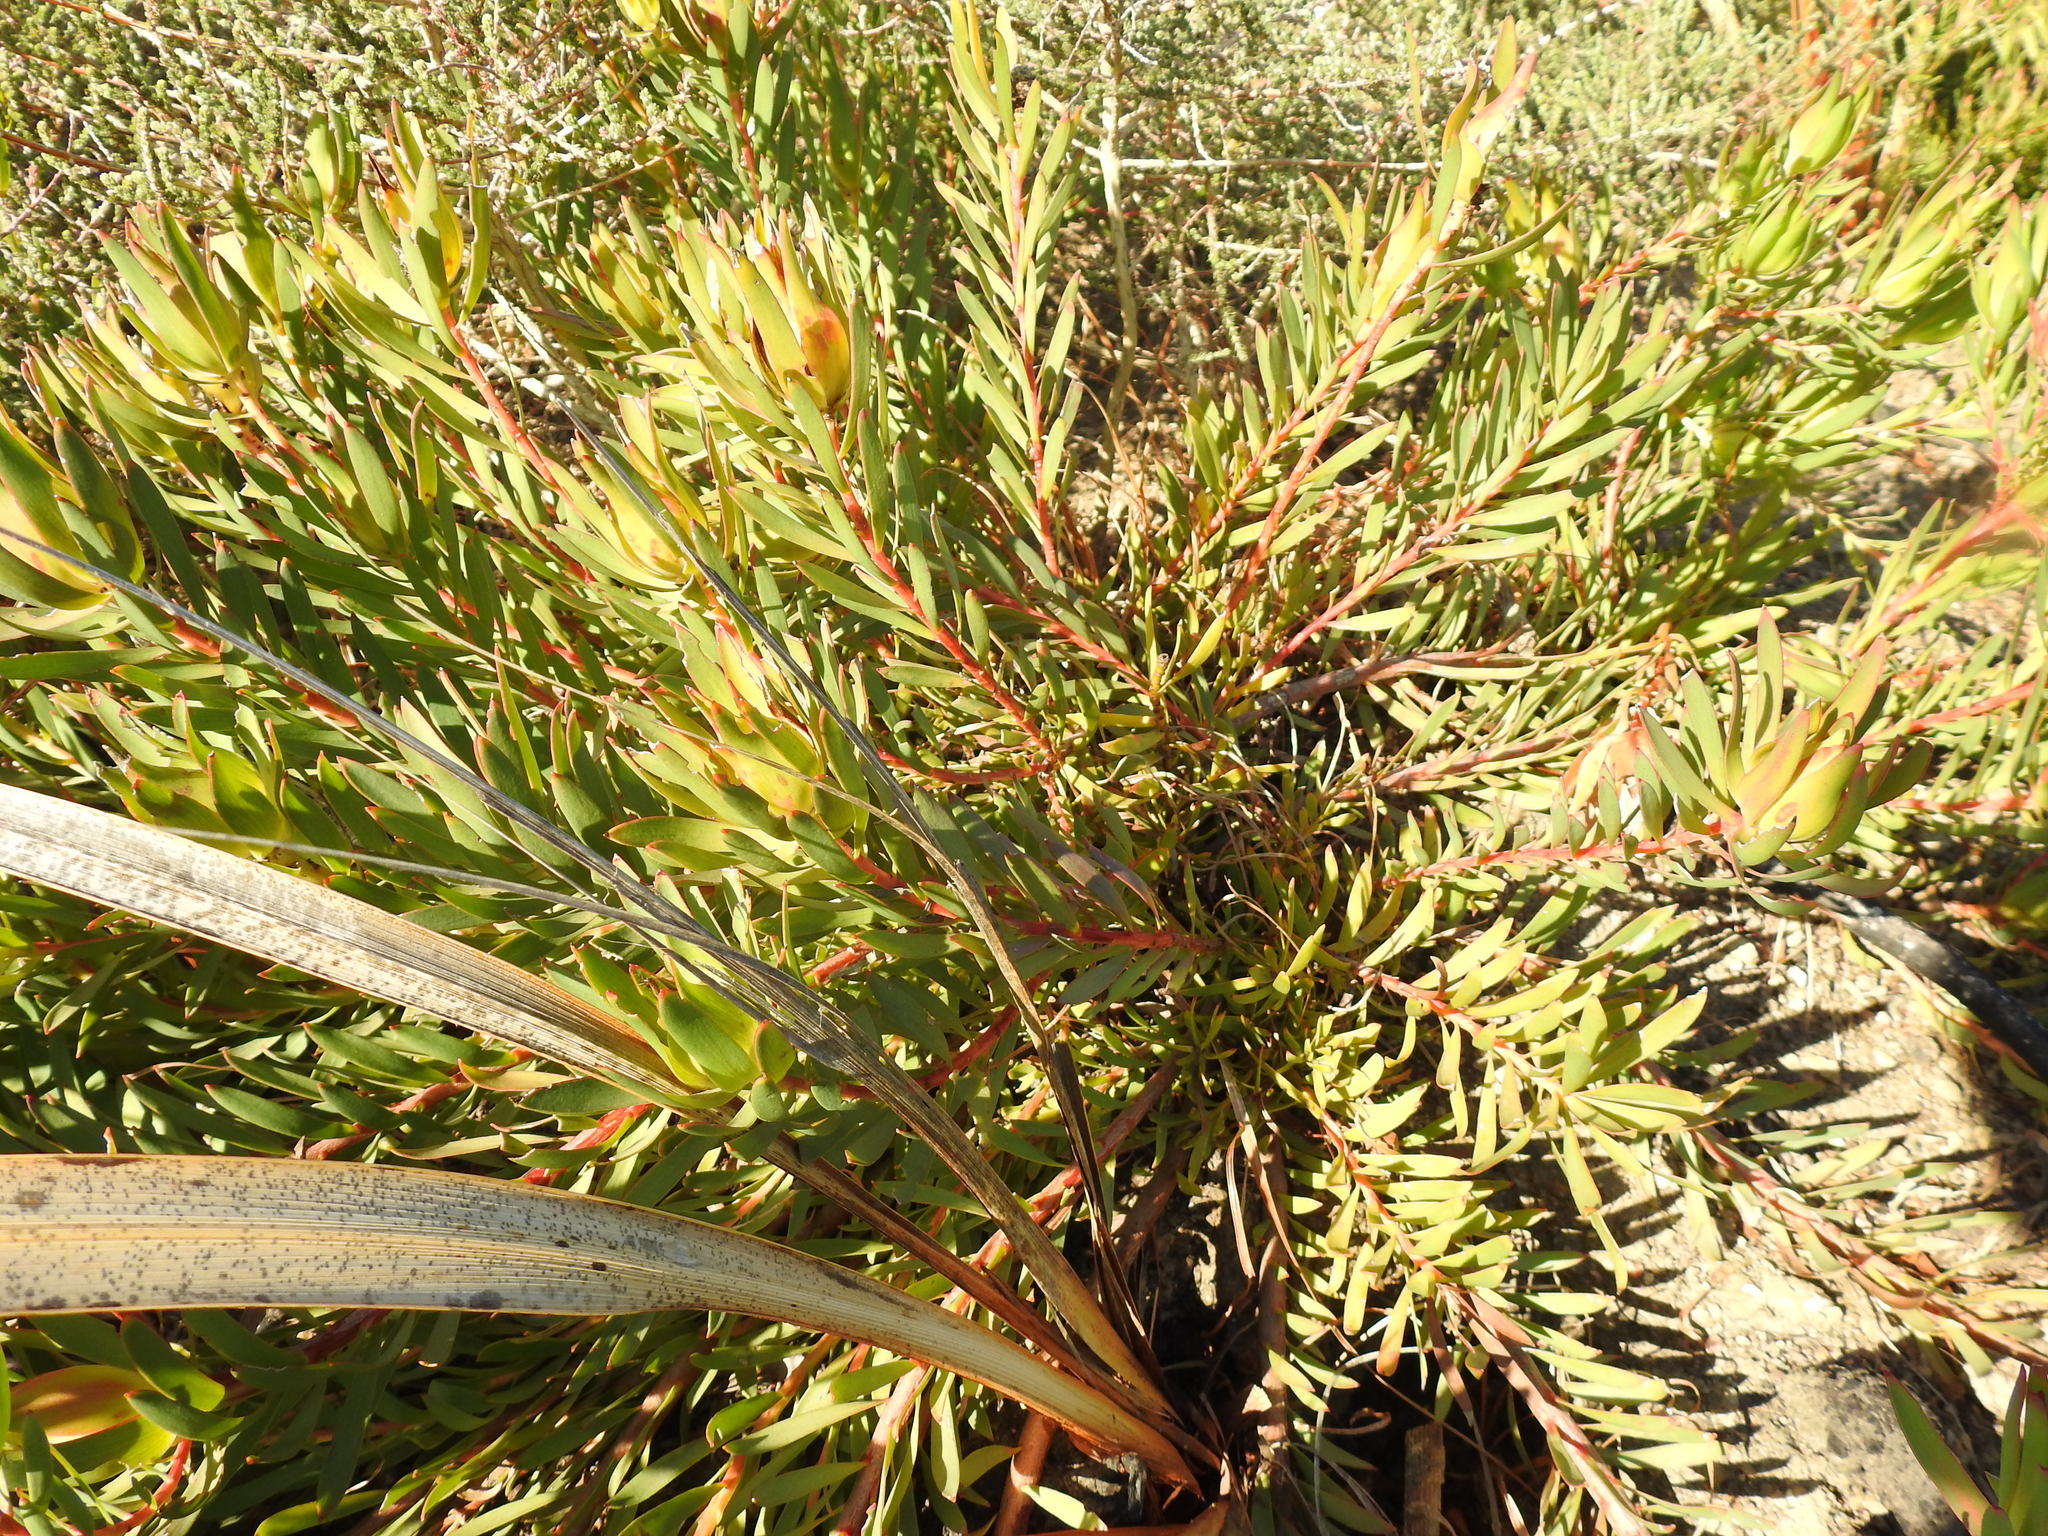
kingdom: Plantae
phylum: Tracheophyta
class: Magnoliopsida
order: Proteales
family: Proteaceae
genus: Leucadendron
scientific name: Leucadendron salignum
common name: Common sunshine conebush
